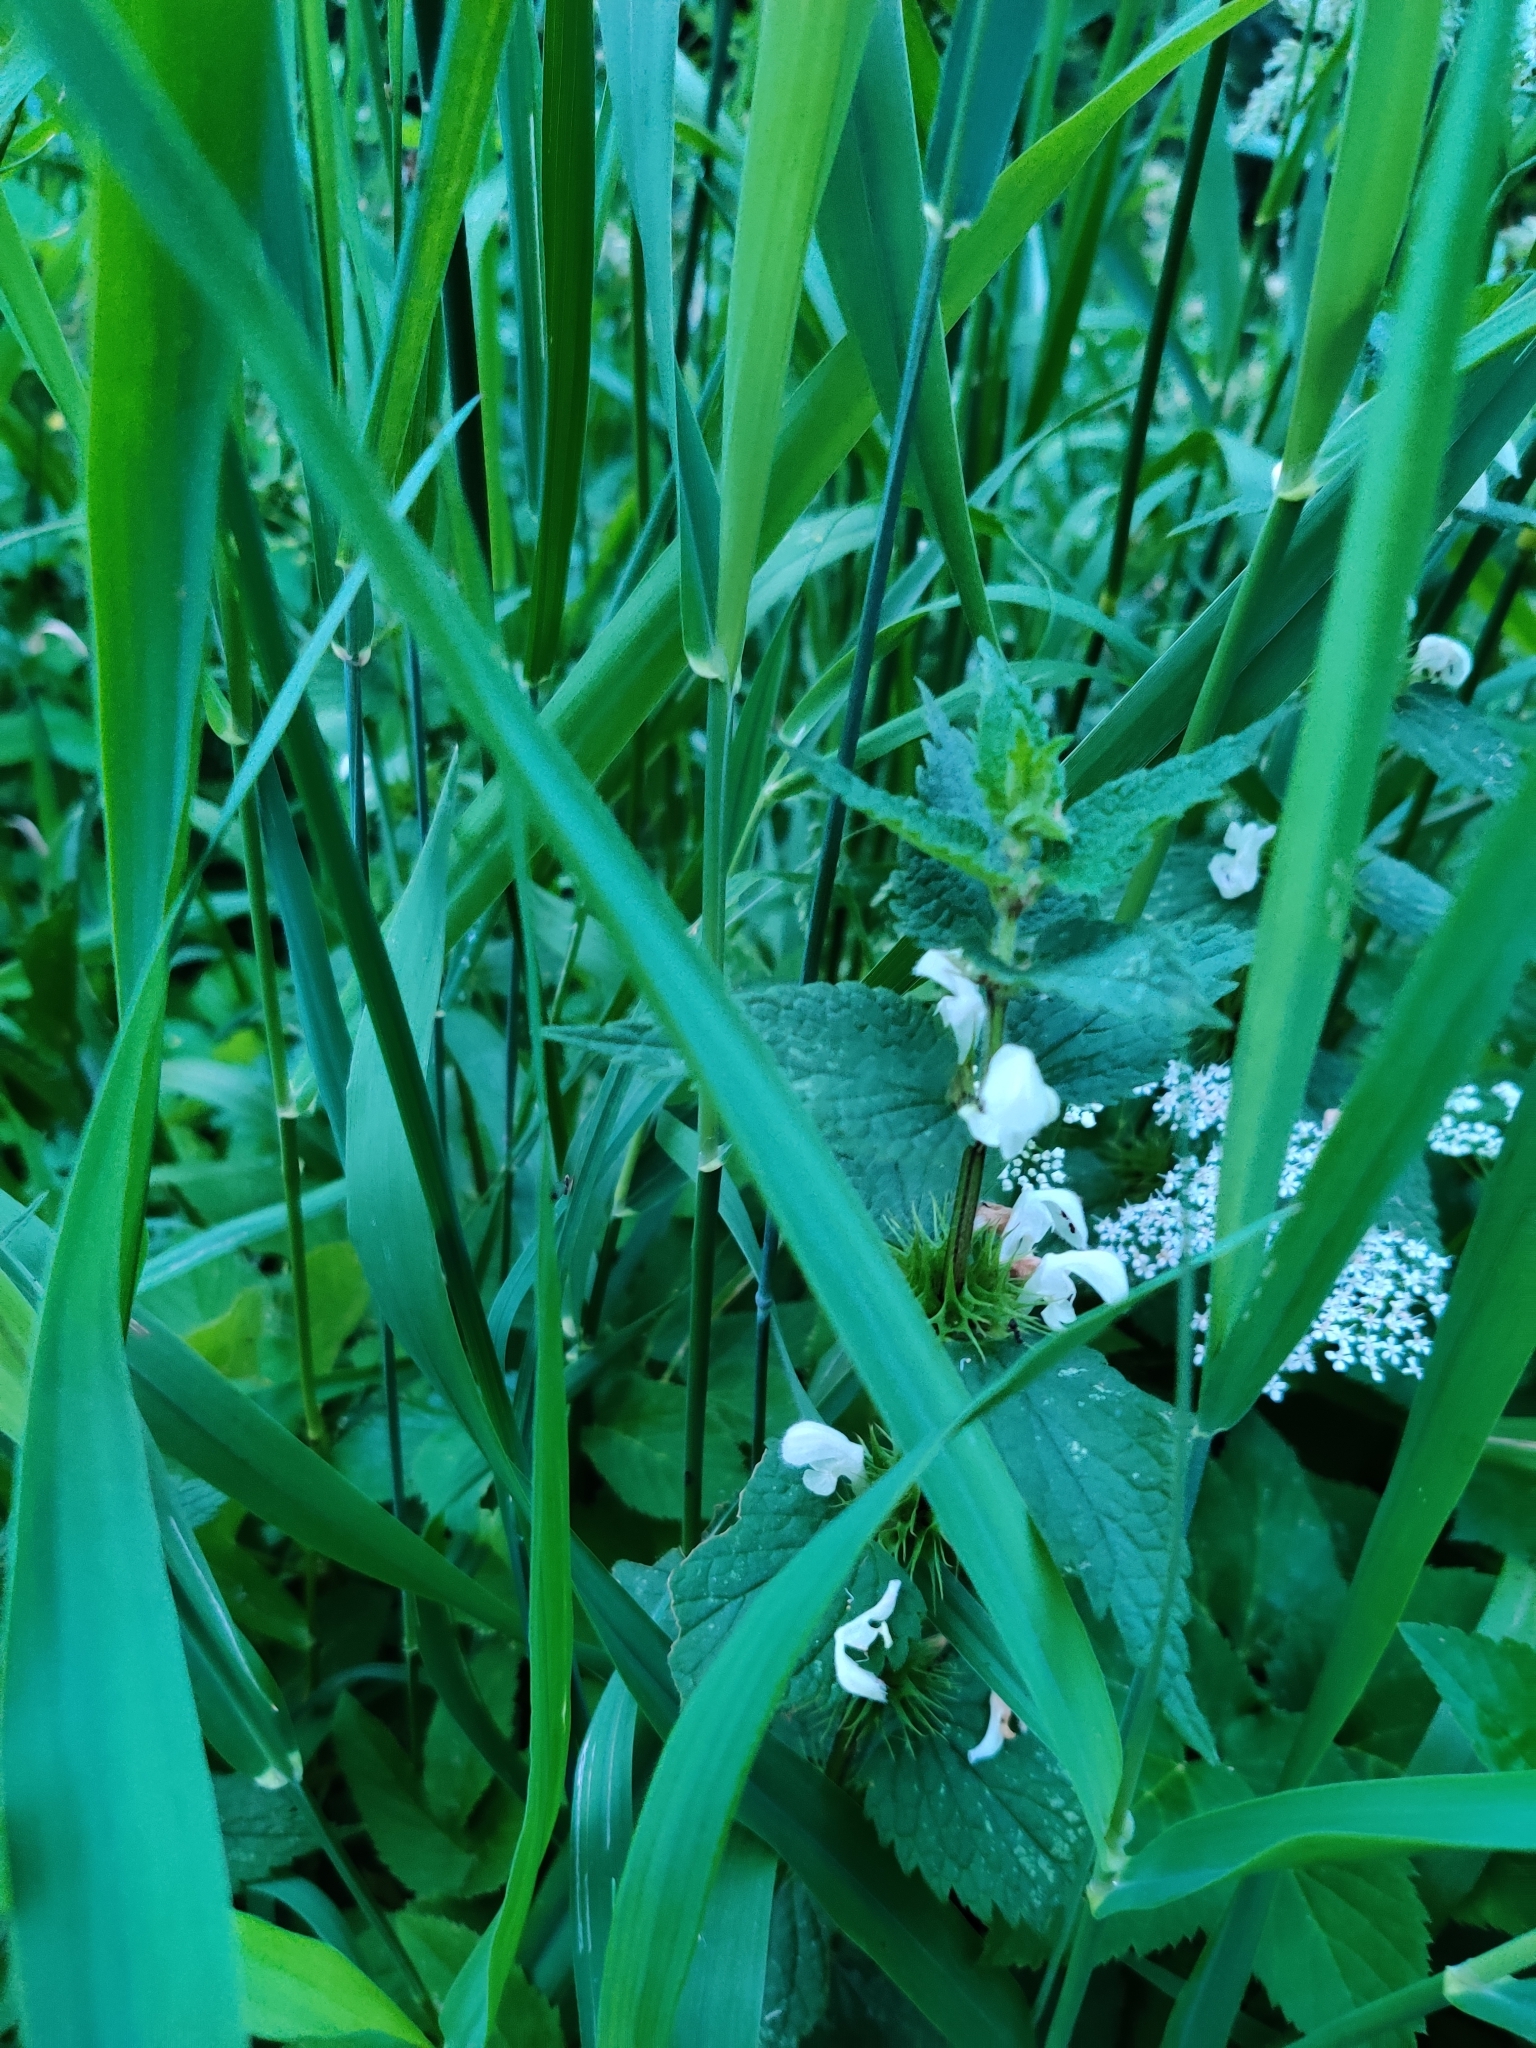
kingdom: Plantae
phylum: Tracheophyta
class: Magnoliopsida
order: Lamiales
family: Lamiaceae
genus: Lamium
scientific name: Lamium album
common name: White dead-nettle
